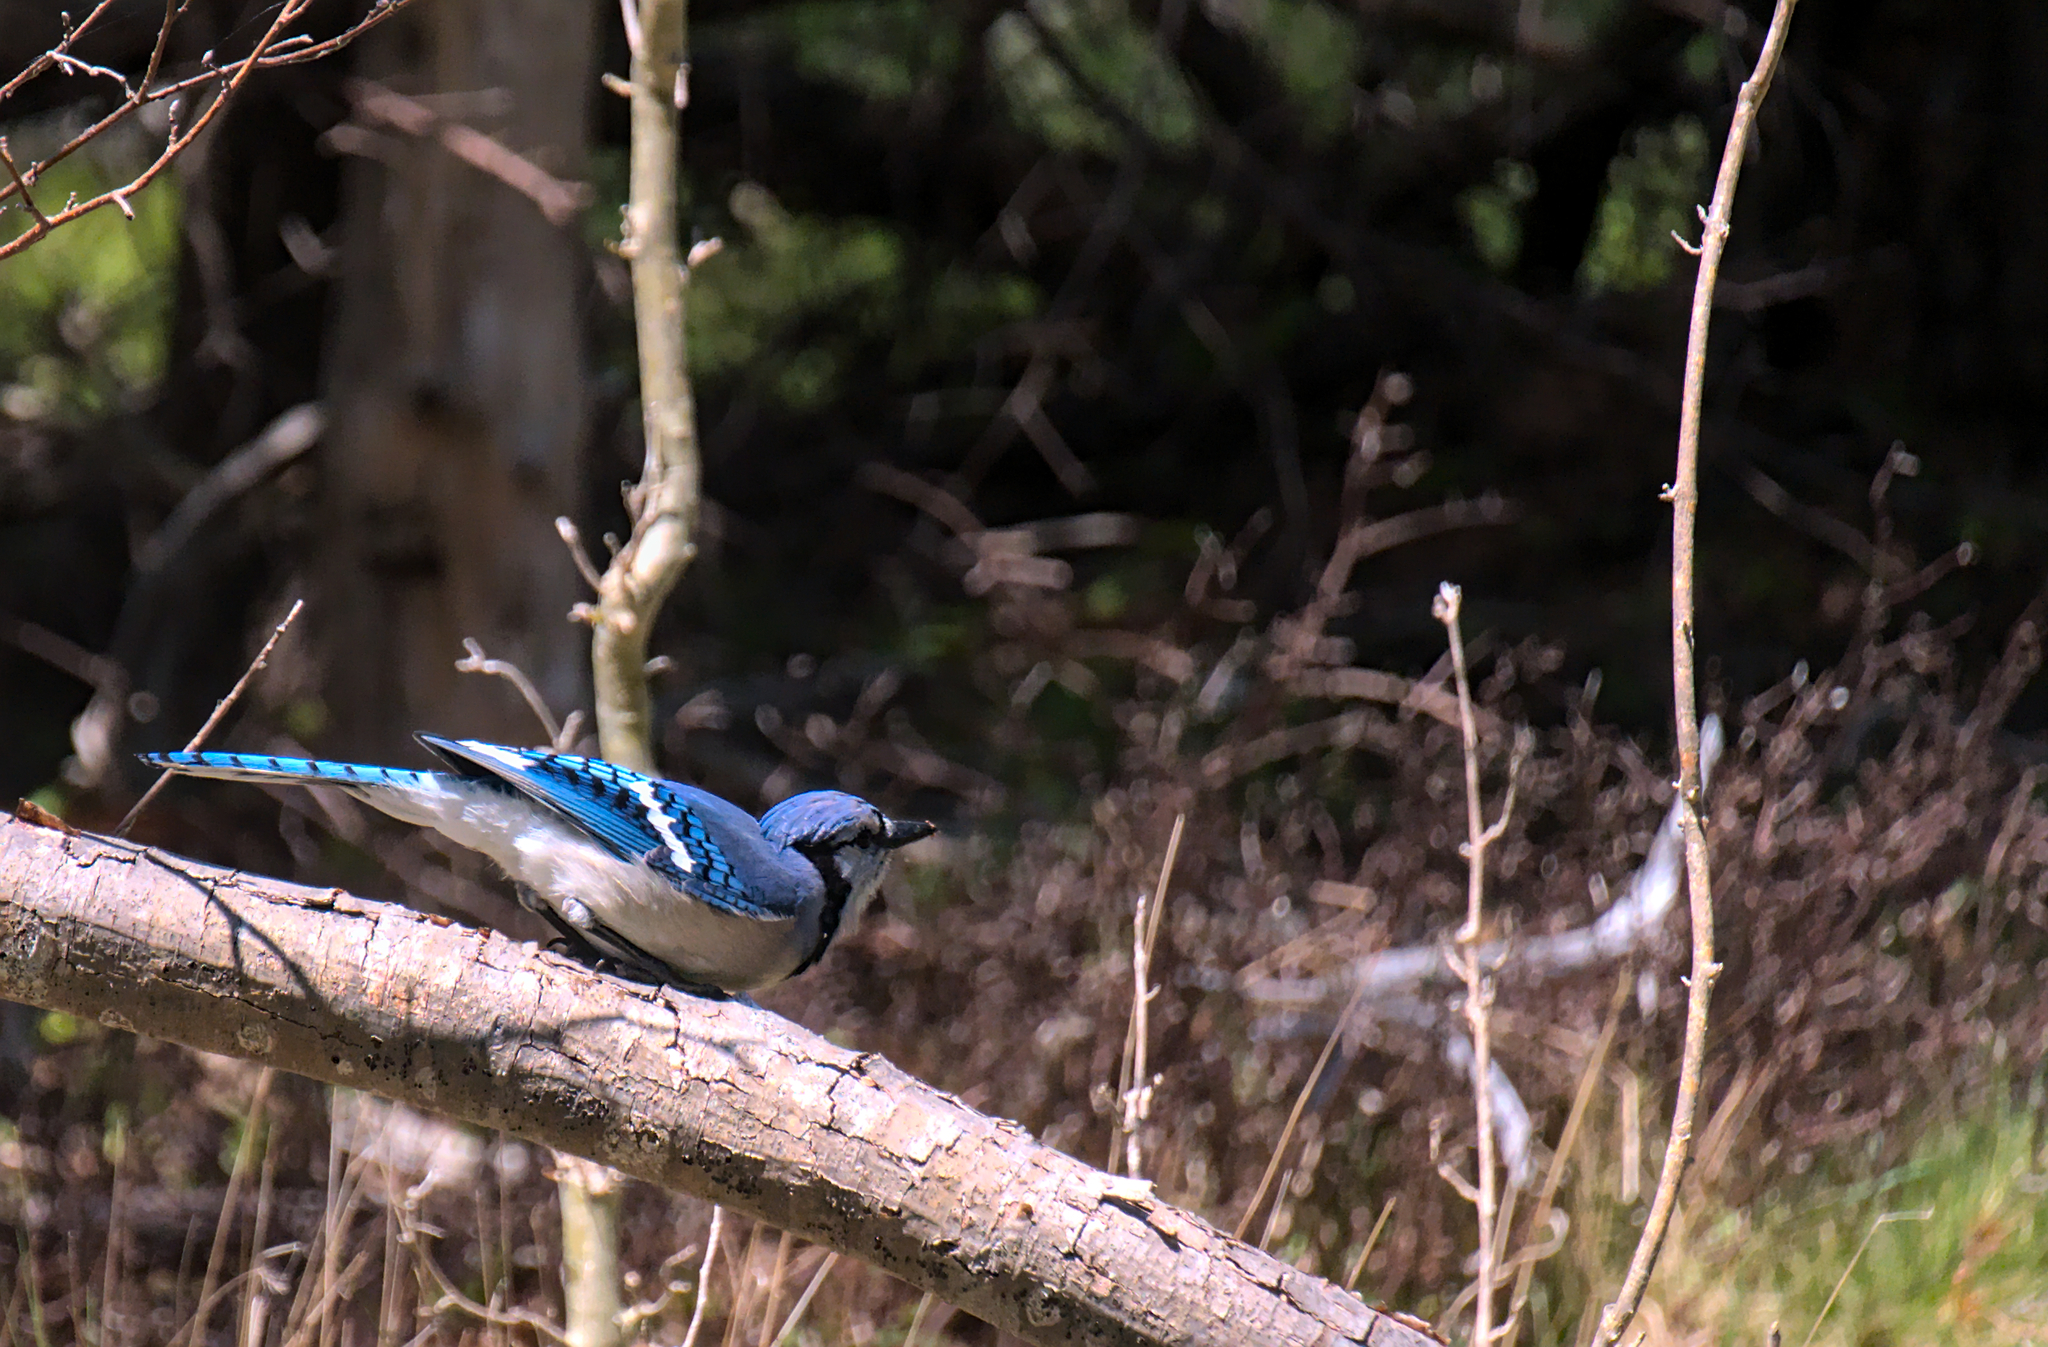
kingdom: Animalia
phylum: Chordata
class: Aves
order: Passeriformes
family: Corvidae
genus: Cyanocitta
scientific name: Cyanocitta cristata
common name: Blue jay
